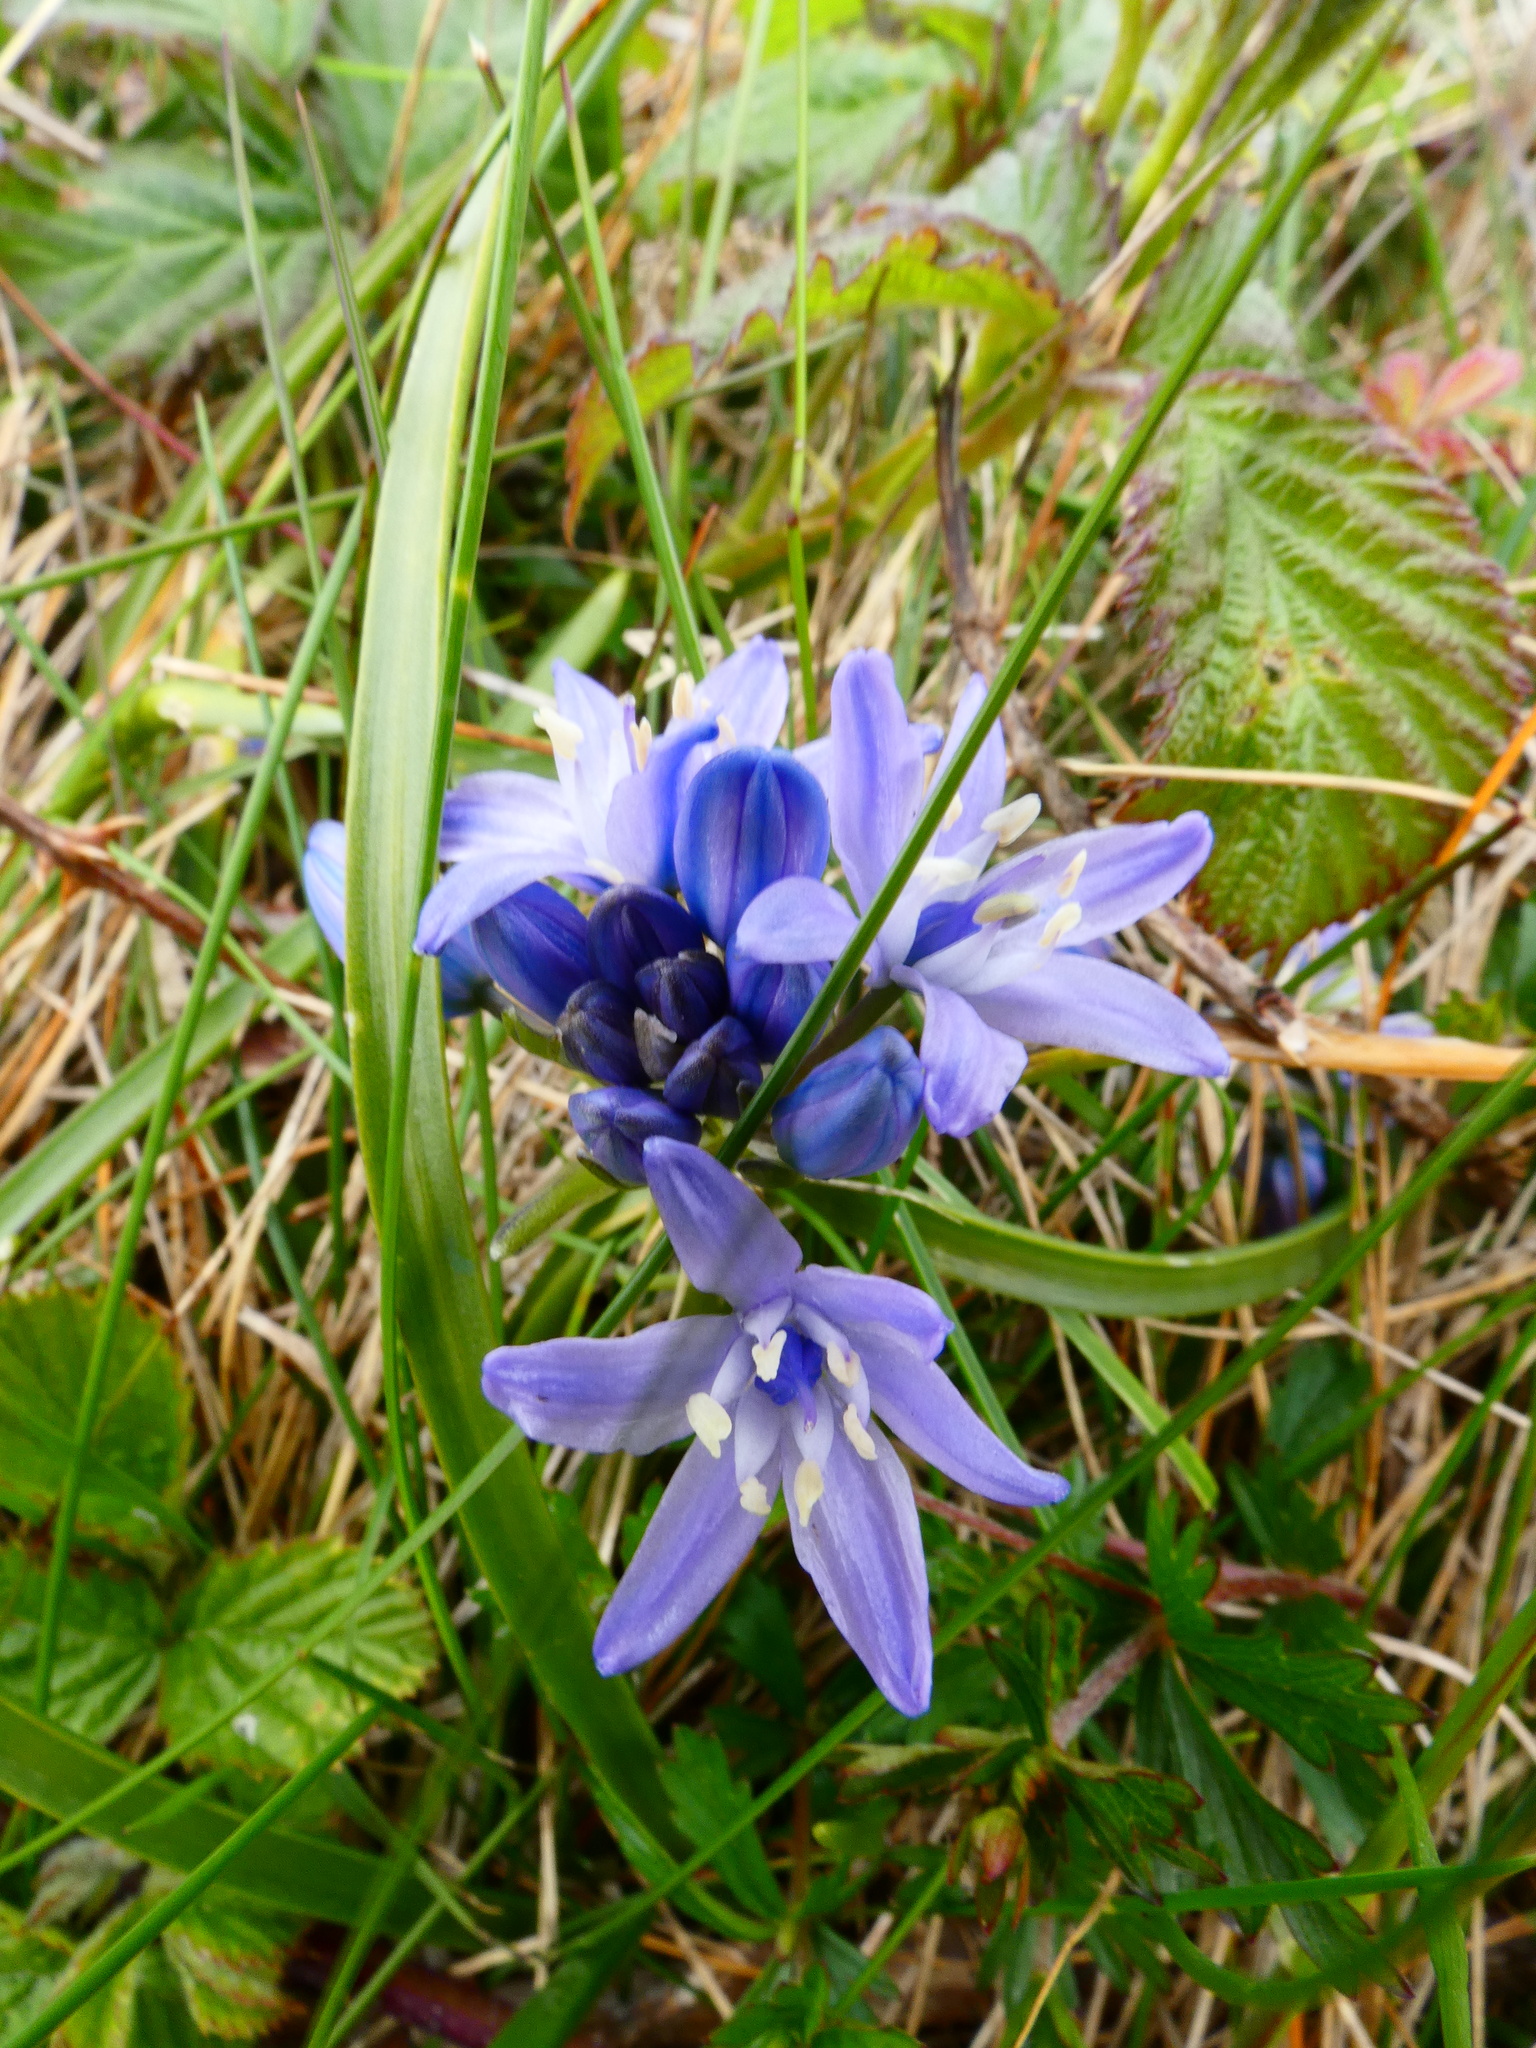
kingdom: Plantae
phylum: Tracheophyta
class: Liliopsida
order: Asparagales
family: Asparagaceae
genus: Scilla
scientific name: Scilla verna
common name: Spring squill
